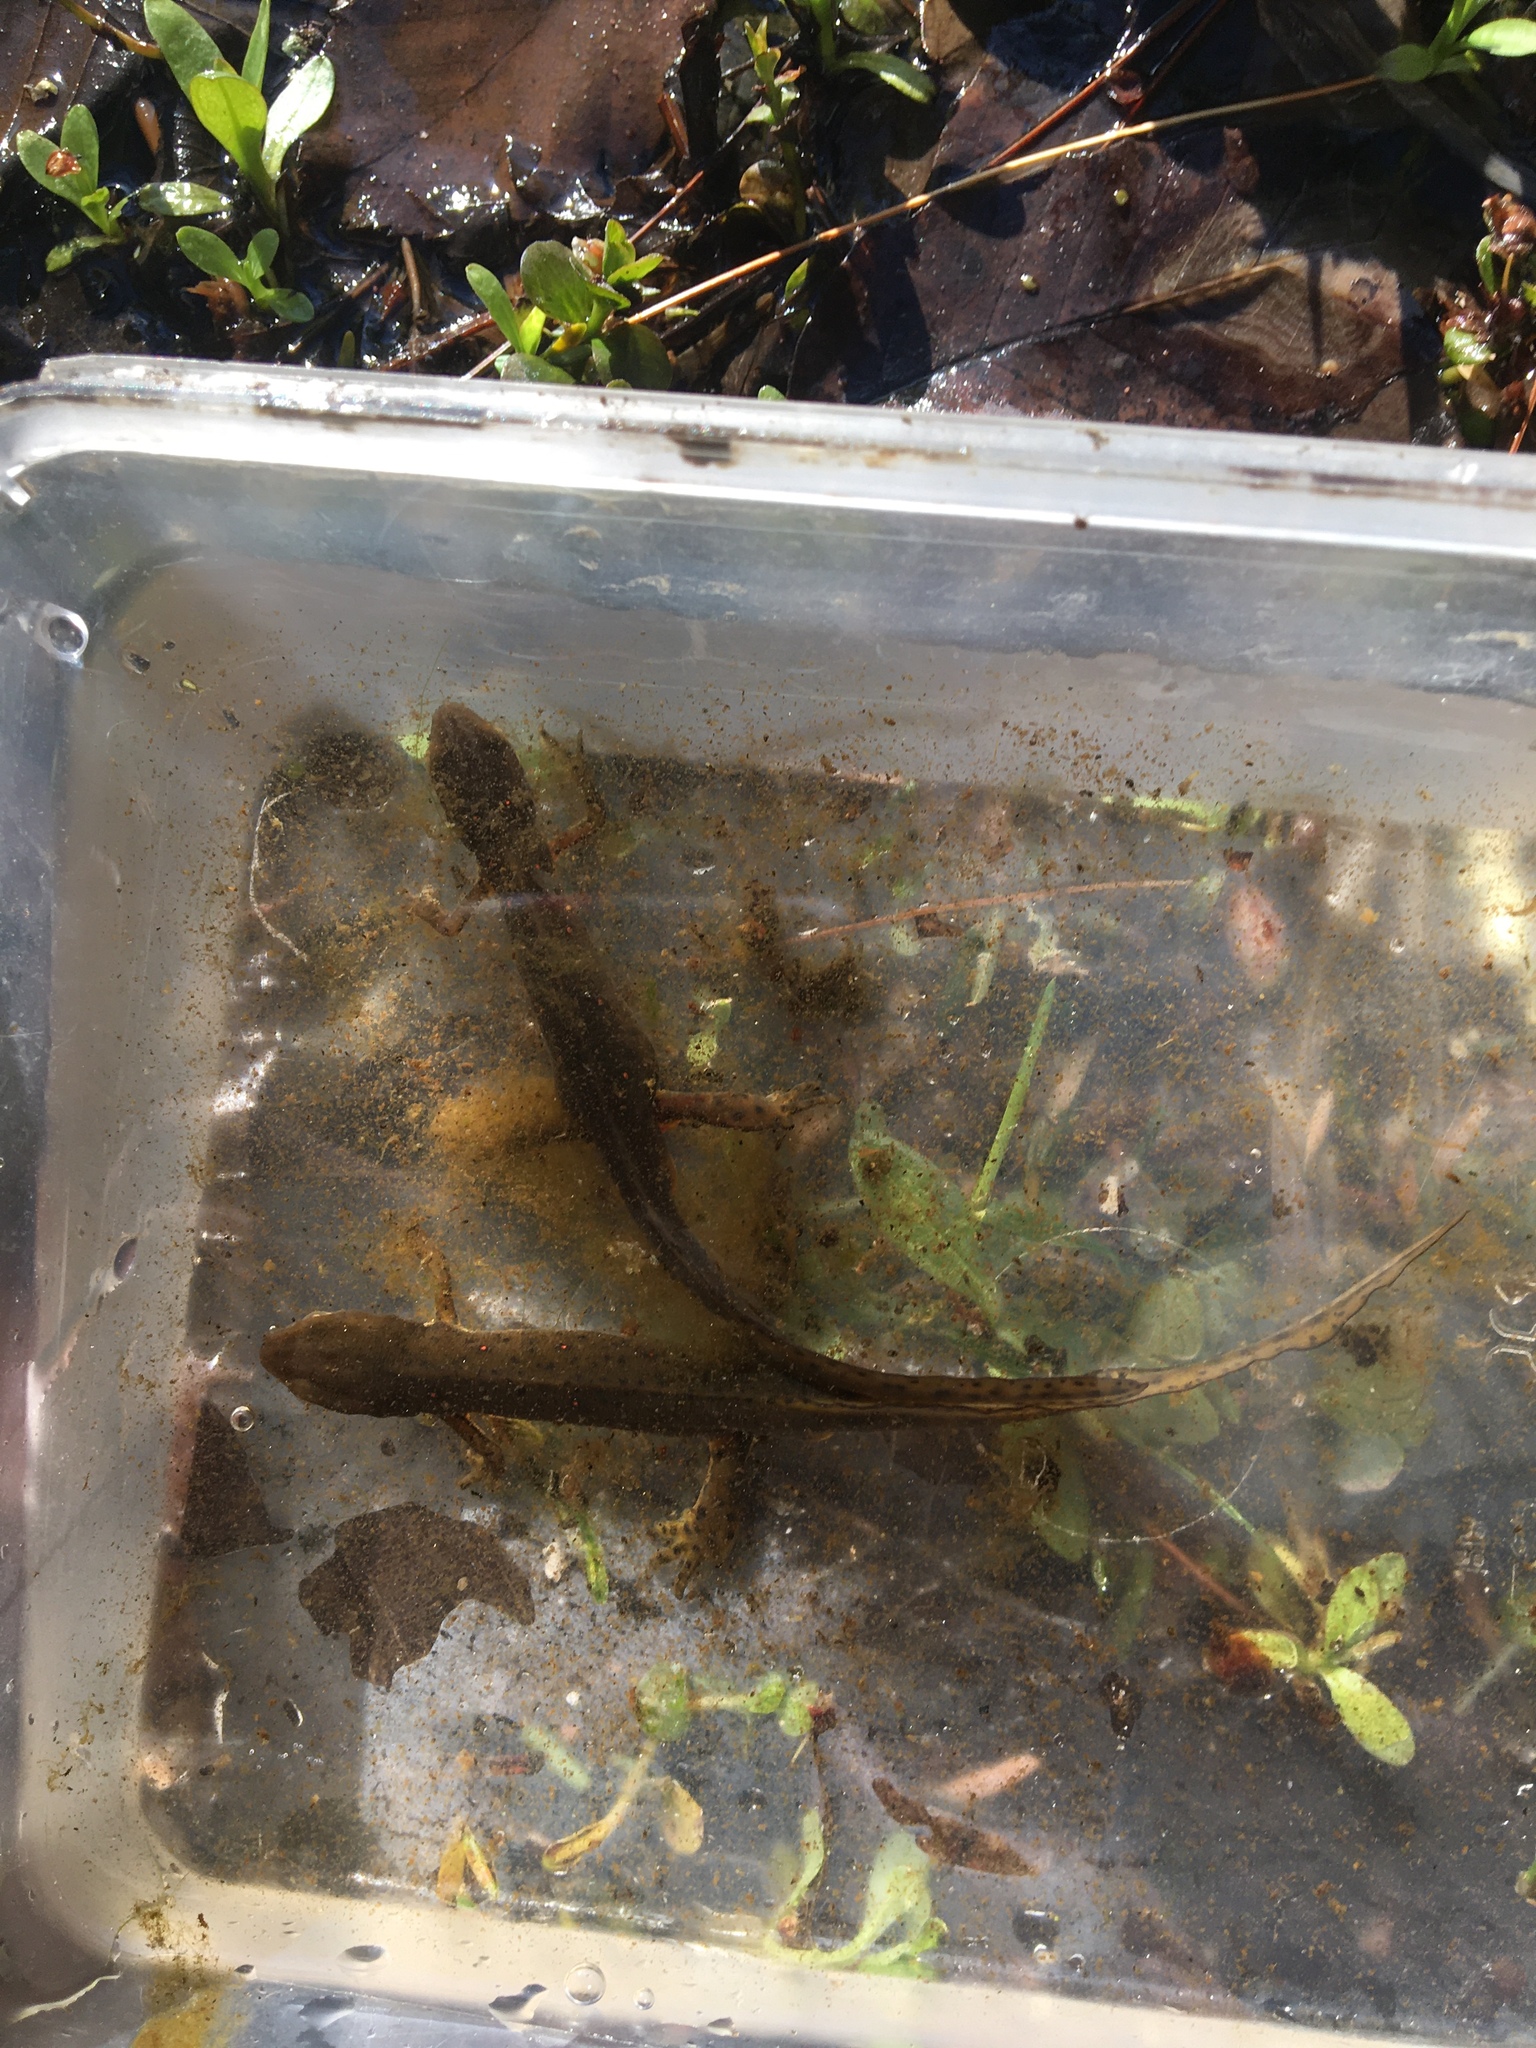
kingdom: Animalia
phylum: Chordata
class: Amphibia
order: Caudata
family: Salamandridae
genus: Notophthalmus
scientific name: Notophthalmus viridescens
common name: Eastern newt
